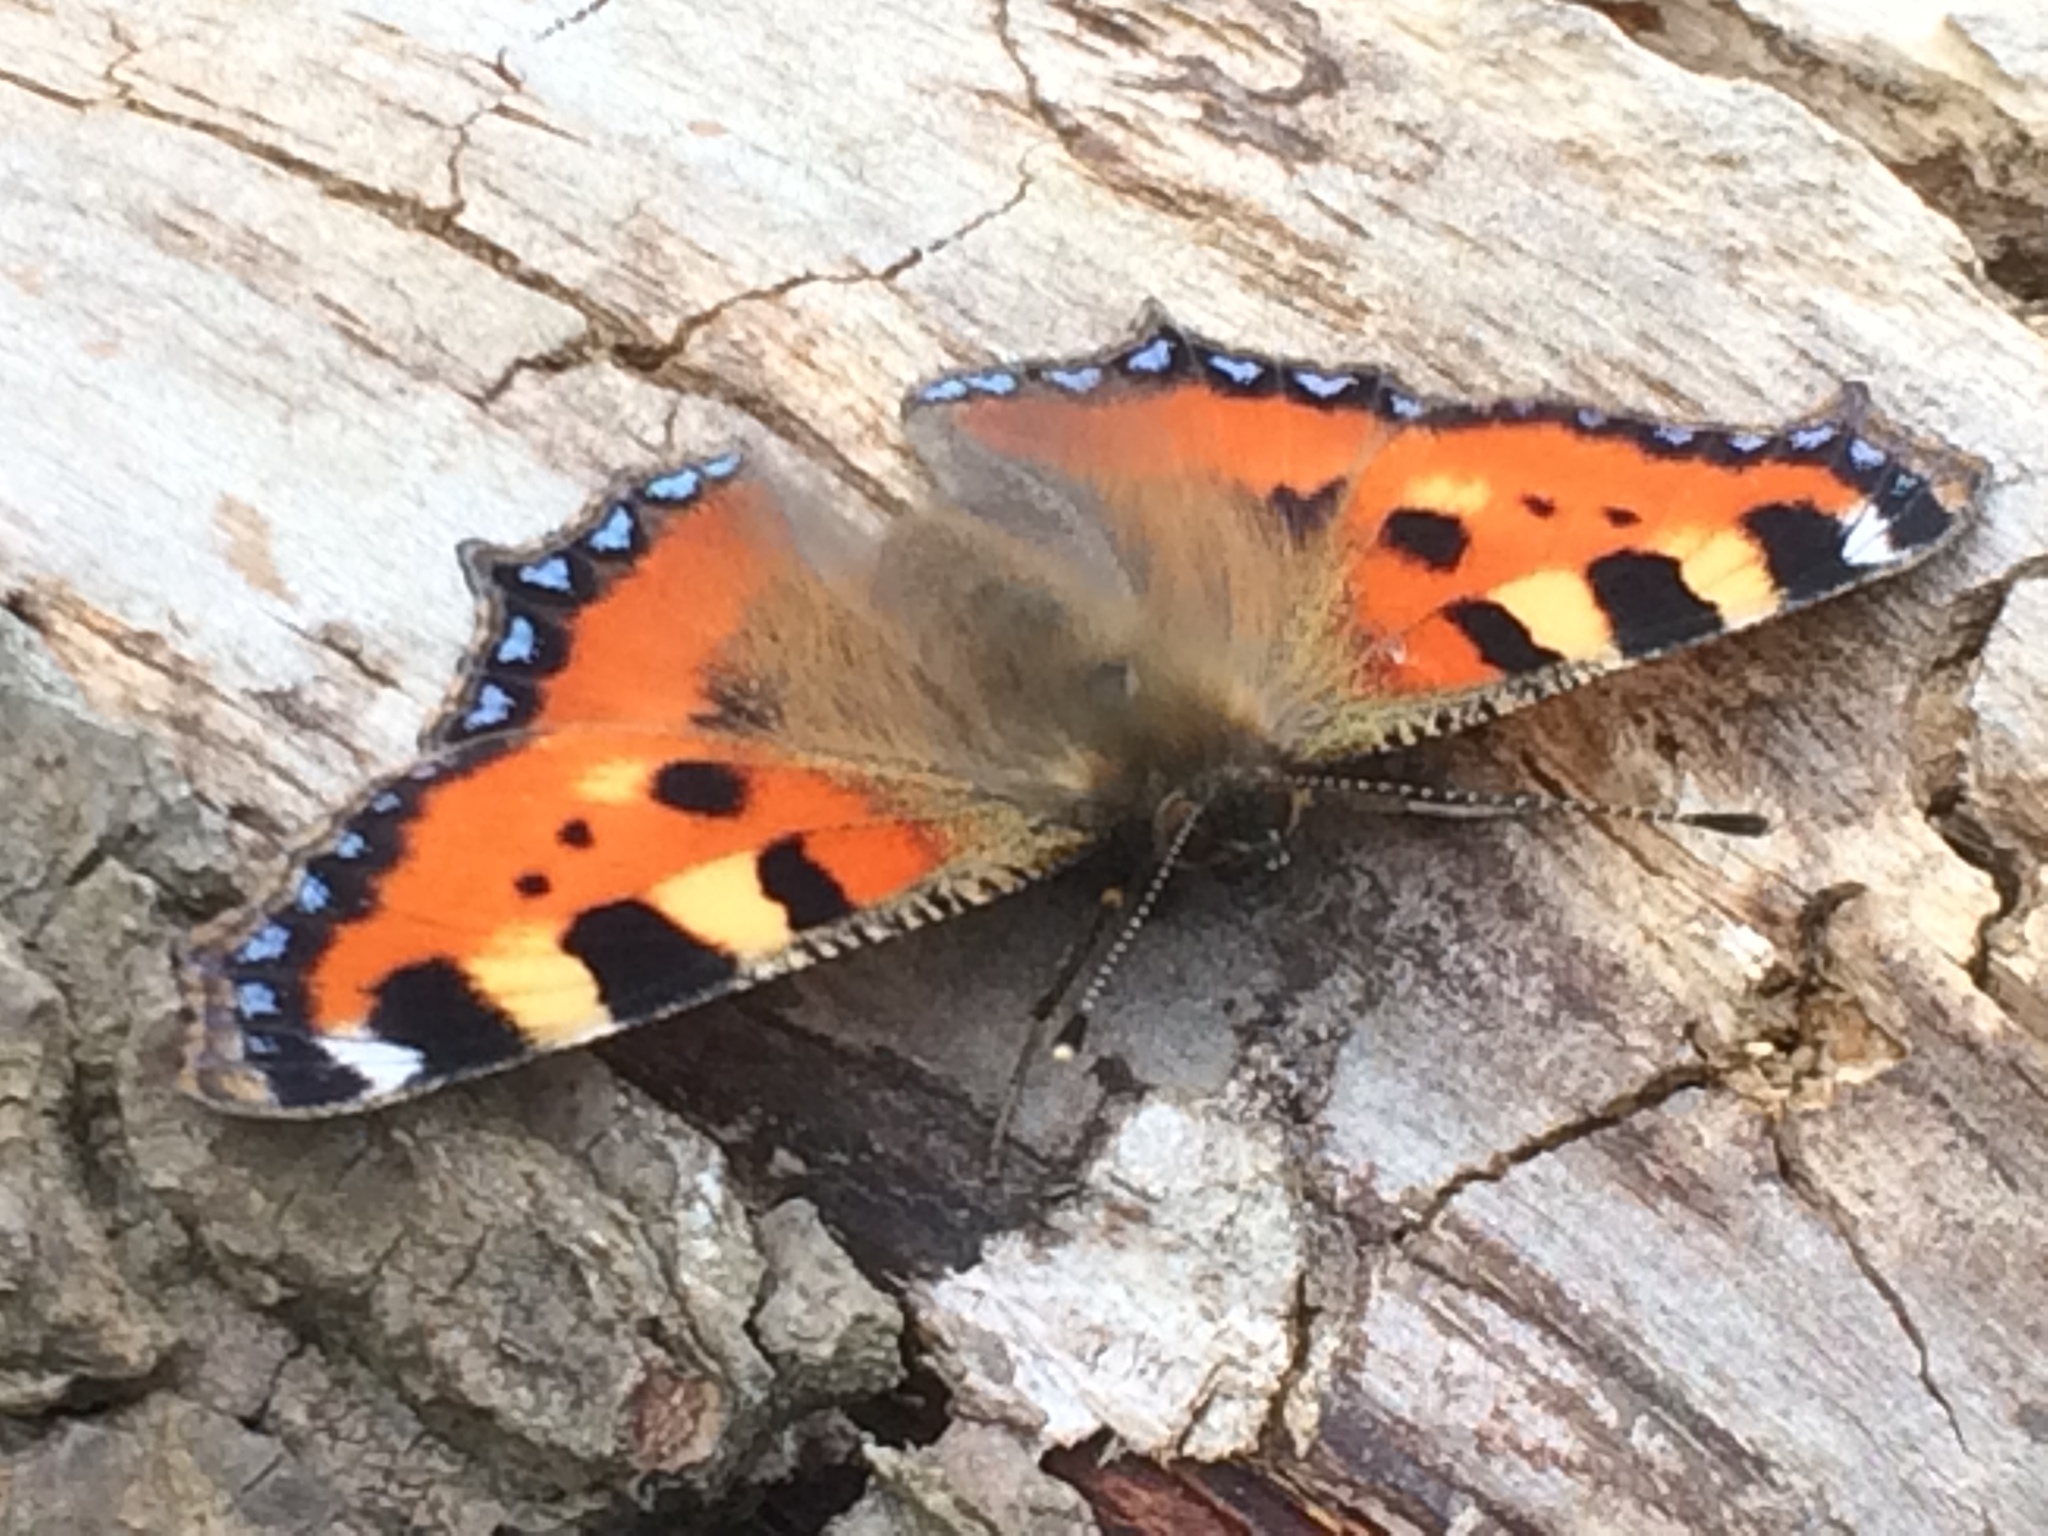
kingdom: Animalia
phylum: Arthropoda
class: Insecta
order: Lepidoptera
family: Nymphalidae
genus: Aglais
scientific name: Aglais urticae
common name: Small tortoiseshell
